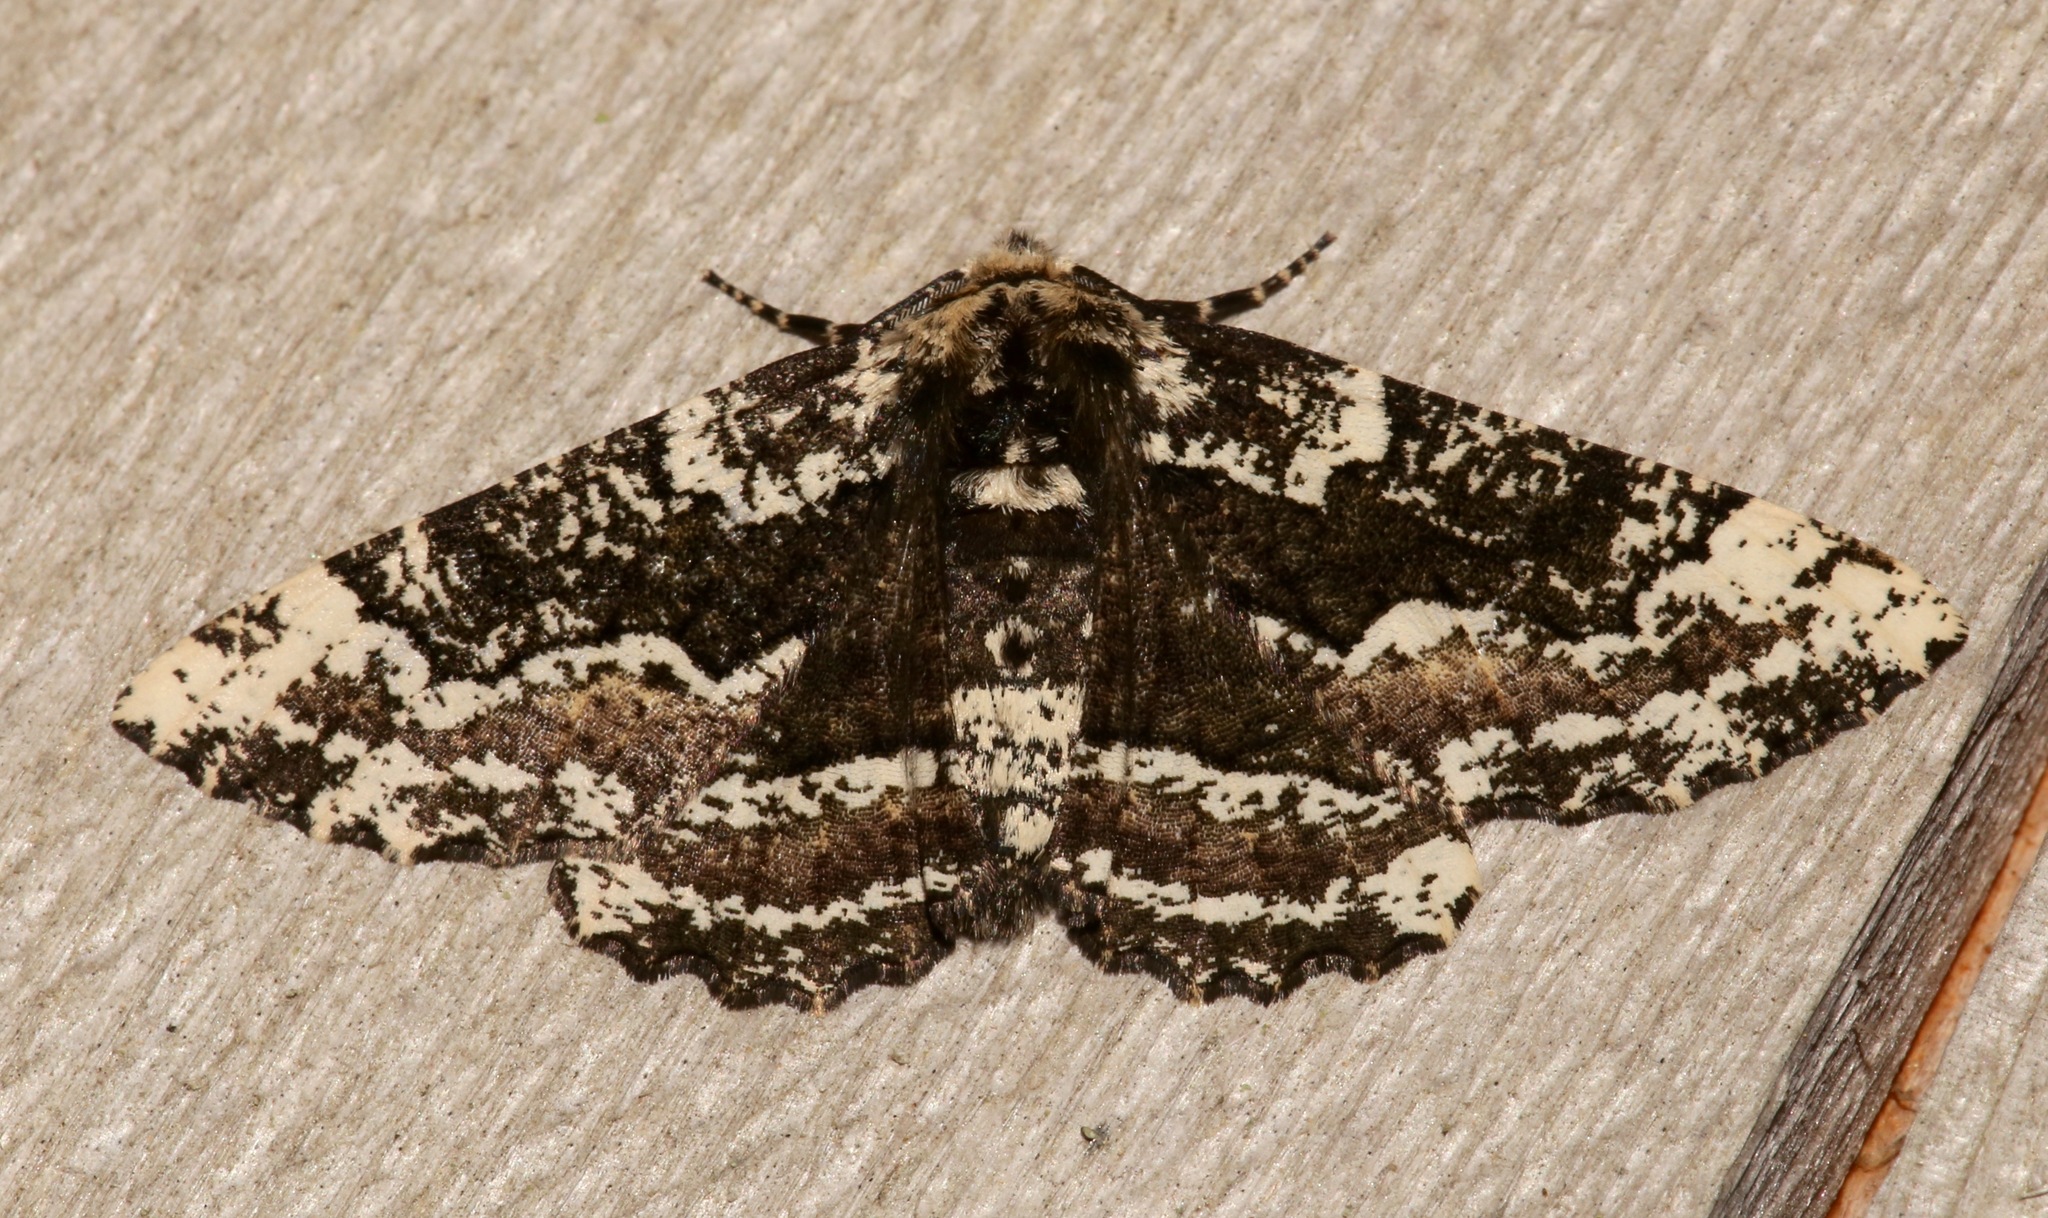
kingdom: Animalia
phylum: Arthropoda
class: Insecta
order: Lepidoptera
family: Geometridae
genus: Phaeoura
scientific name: Phaeoura quernaria
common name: Oak beauty
